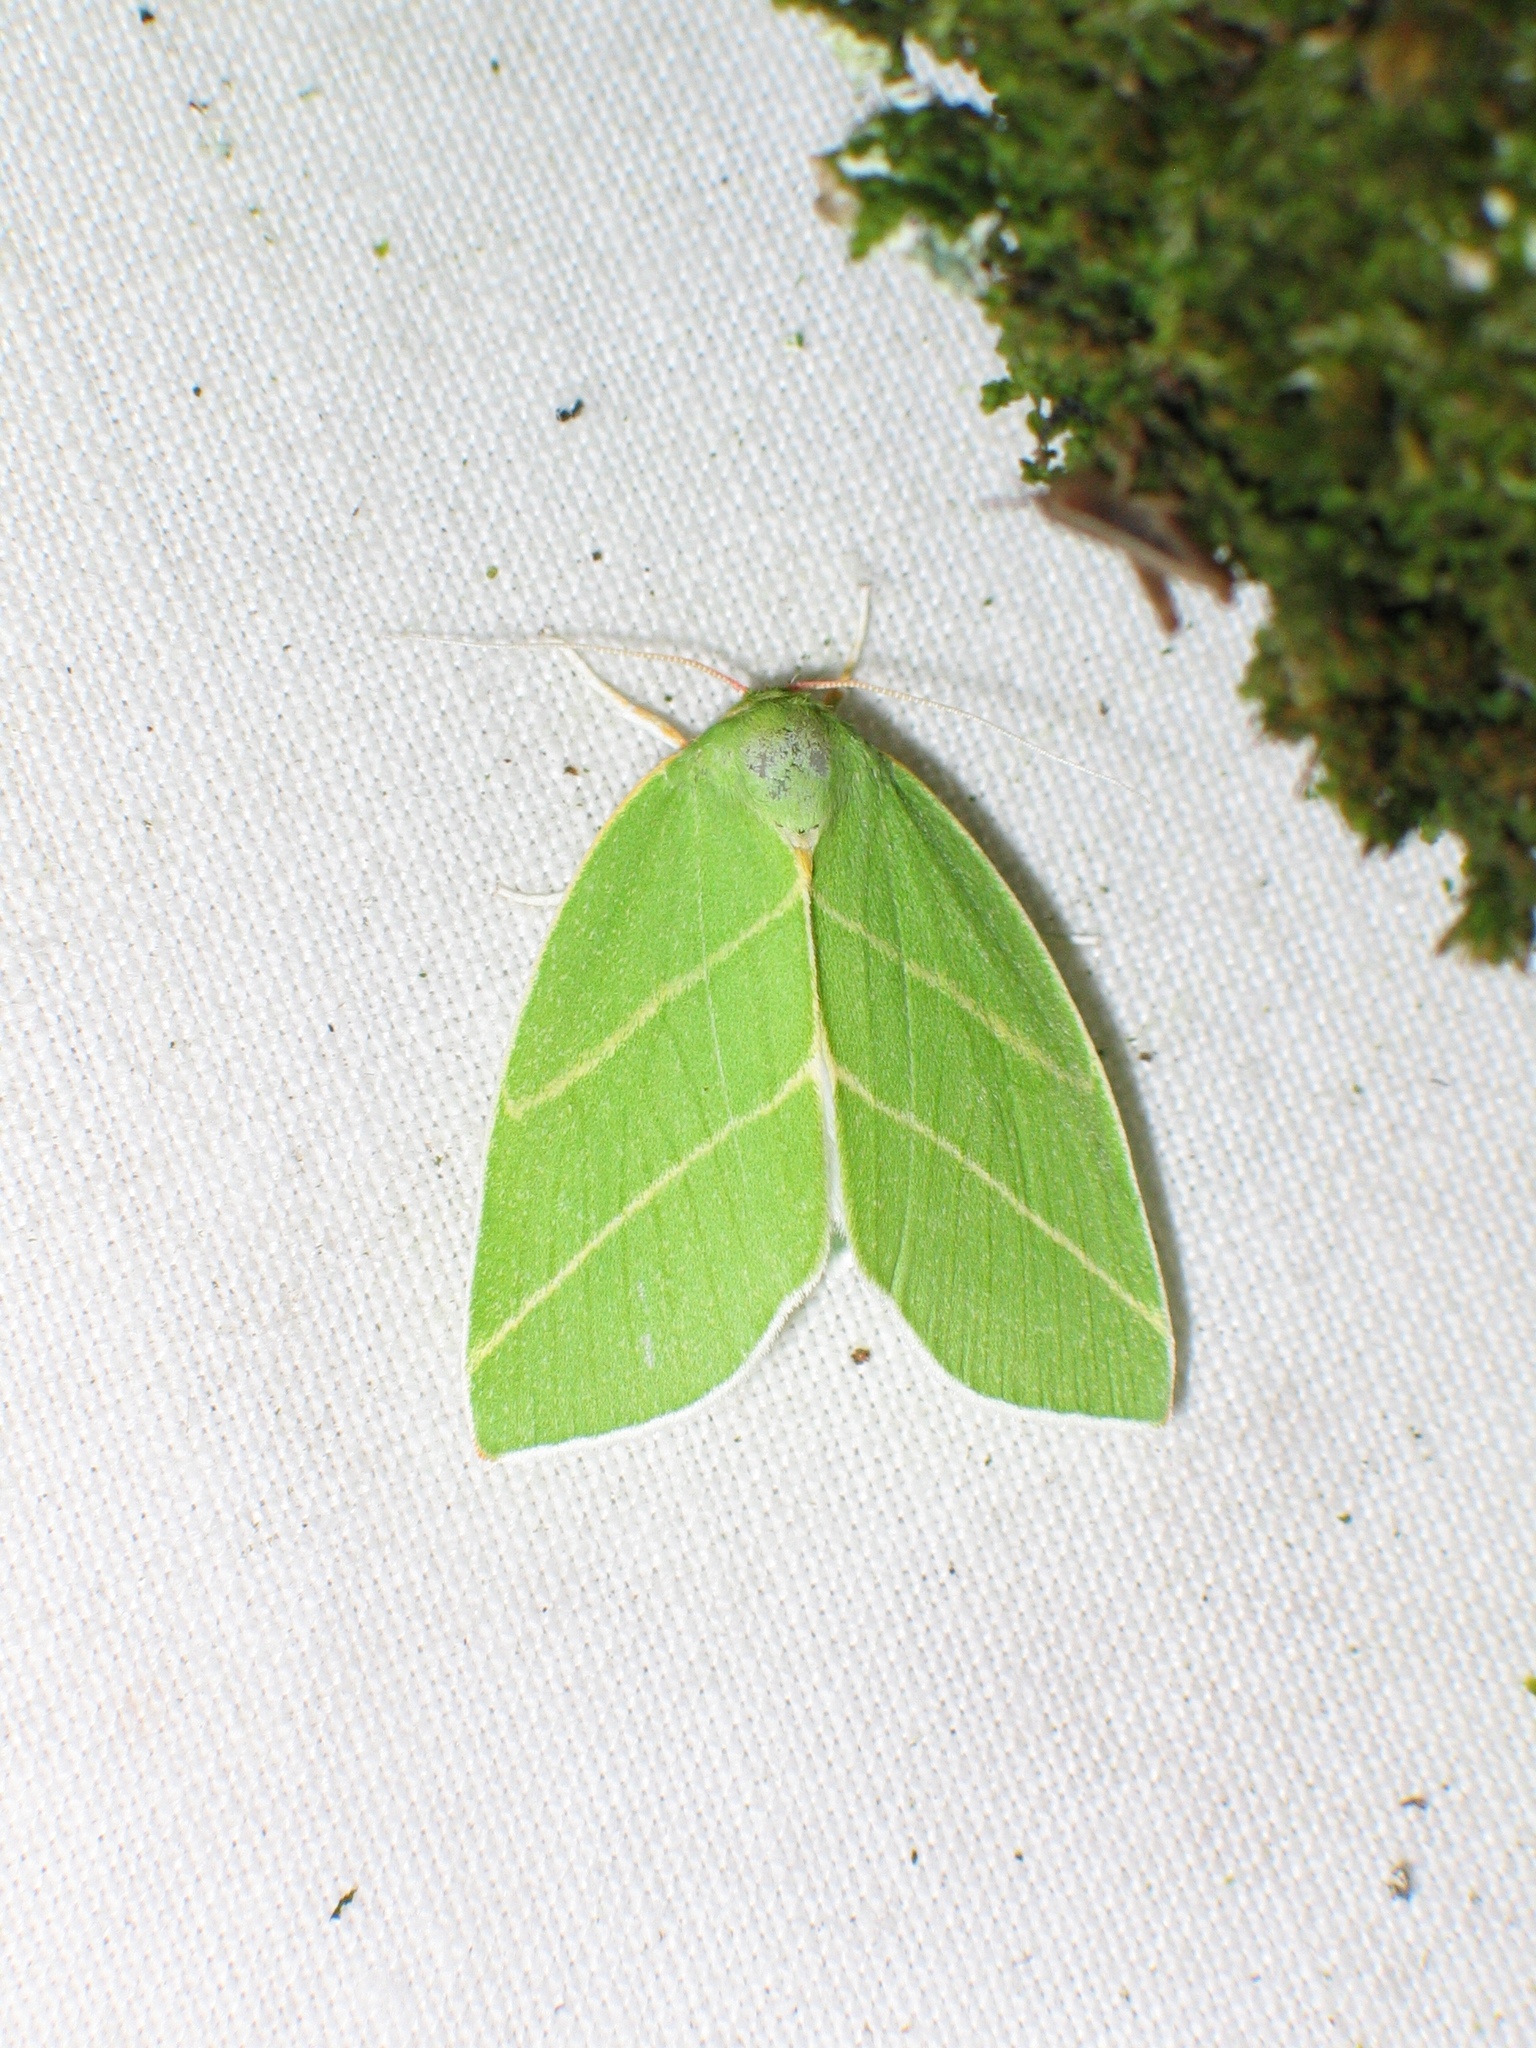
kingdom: Animalia
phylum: Arthropoda
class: Insecta
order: Lepidoptera
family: Nolidae
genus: Bena
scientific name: Bena bicolorana
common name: Scarce silver-lines
